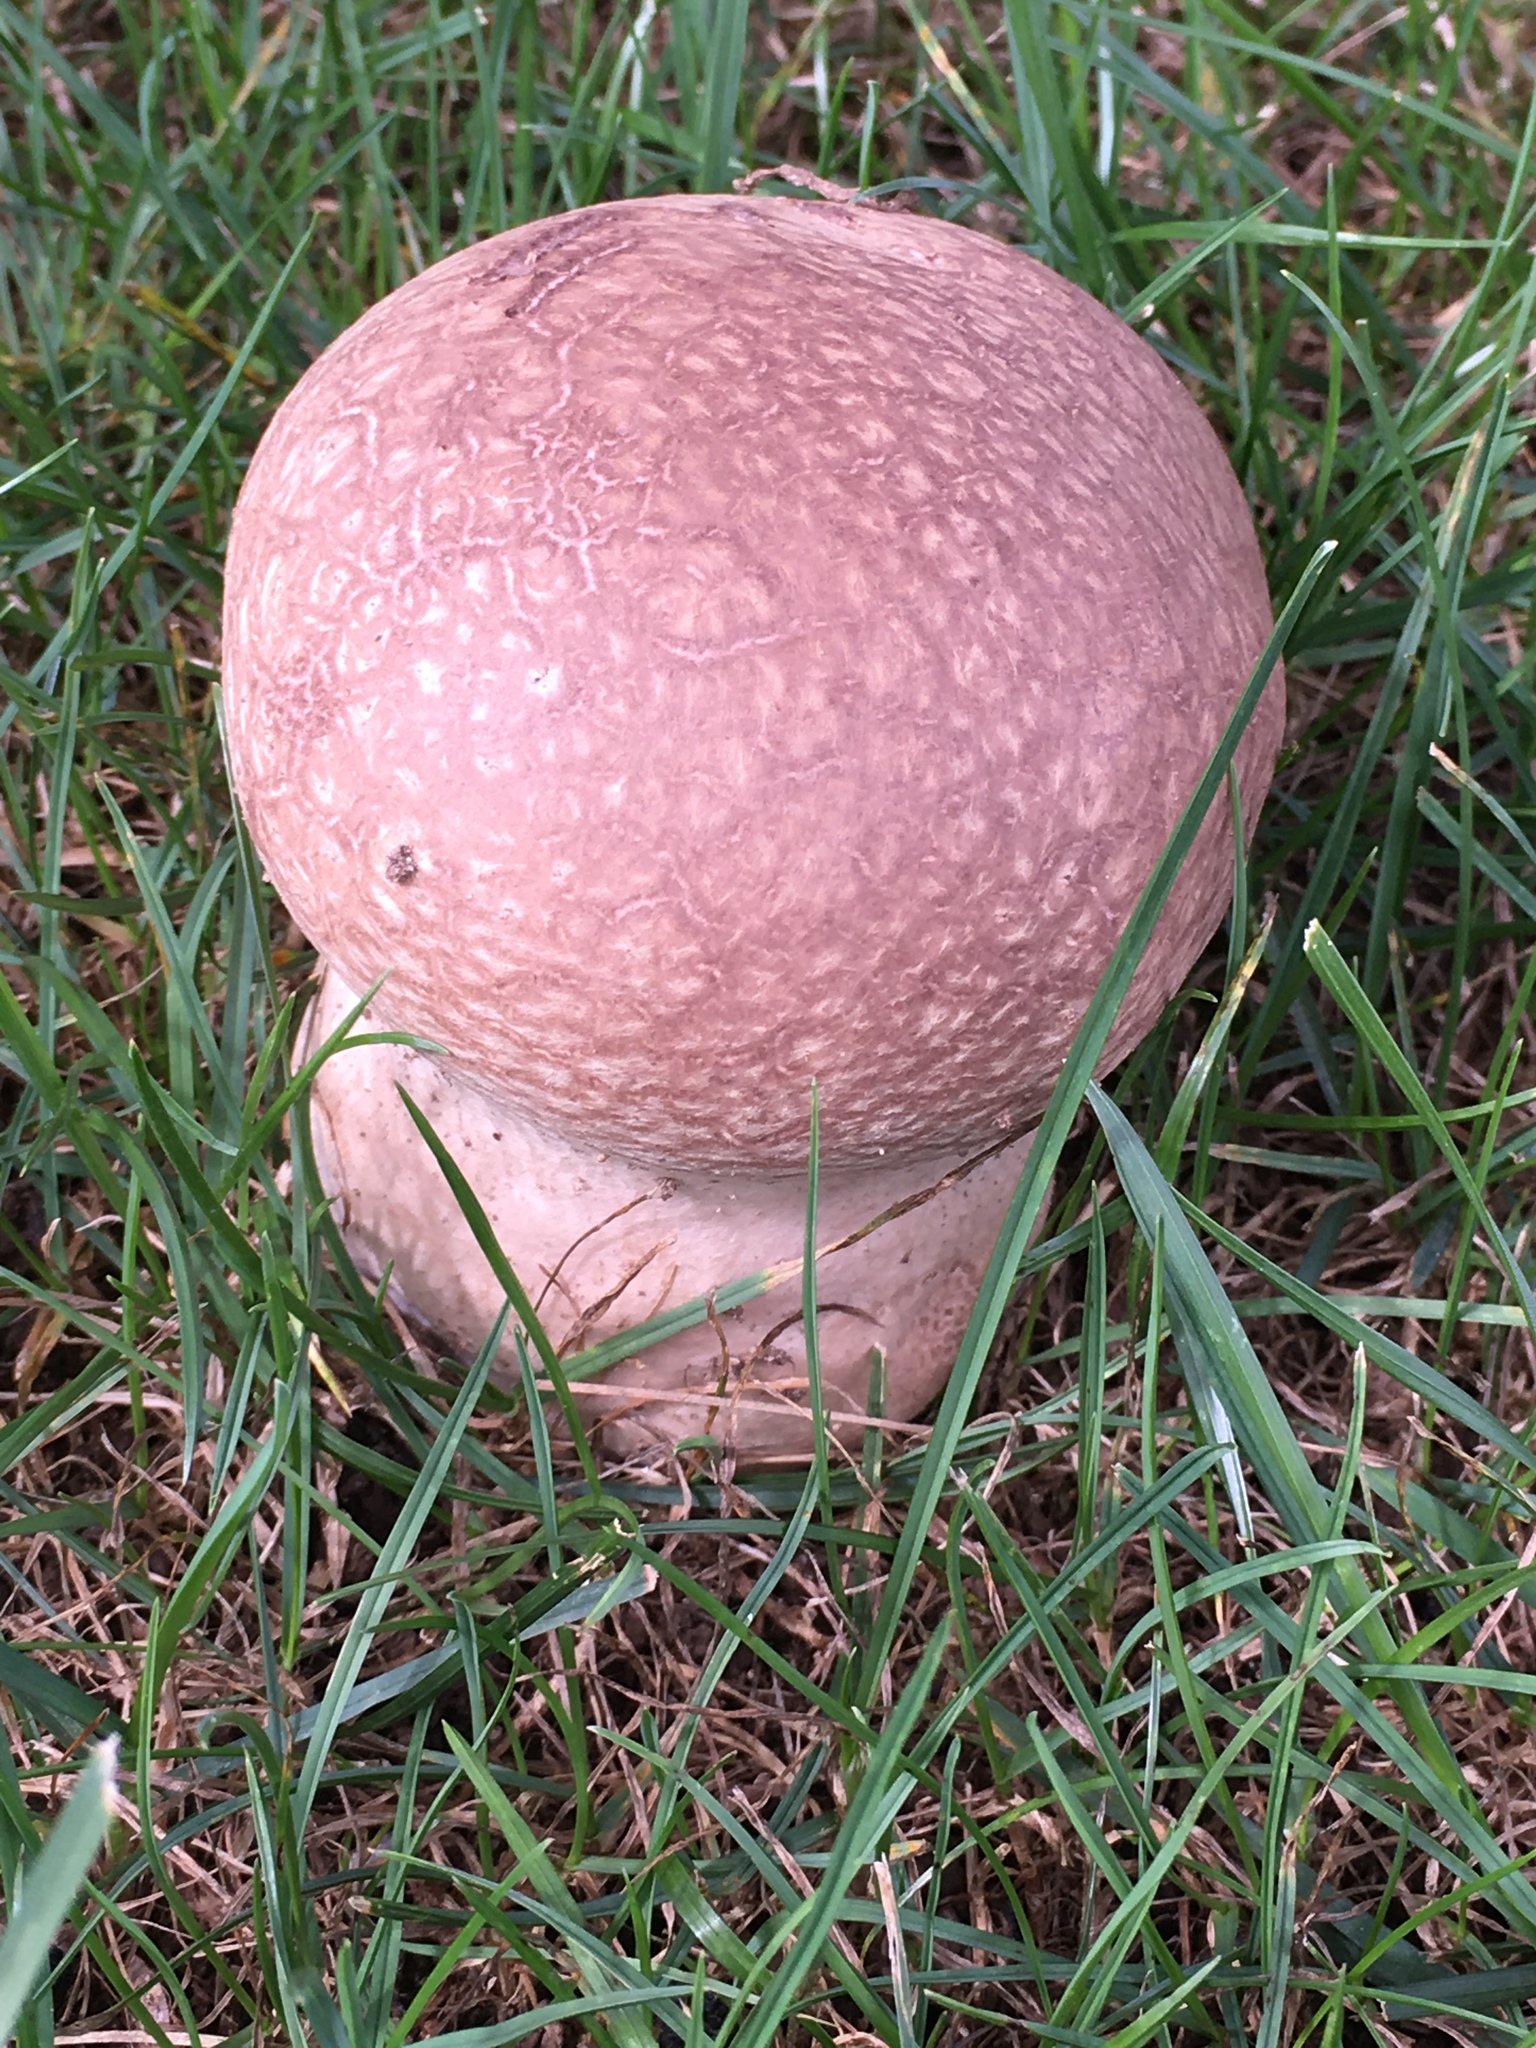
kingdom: Fungi
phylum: Basidiomycota
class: Agaricomycetes
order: Agaricales
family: Lycoperdaceae
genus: Calvatia
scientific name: Calvatia cyathiformis
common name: Purple-spored puffball
